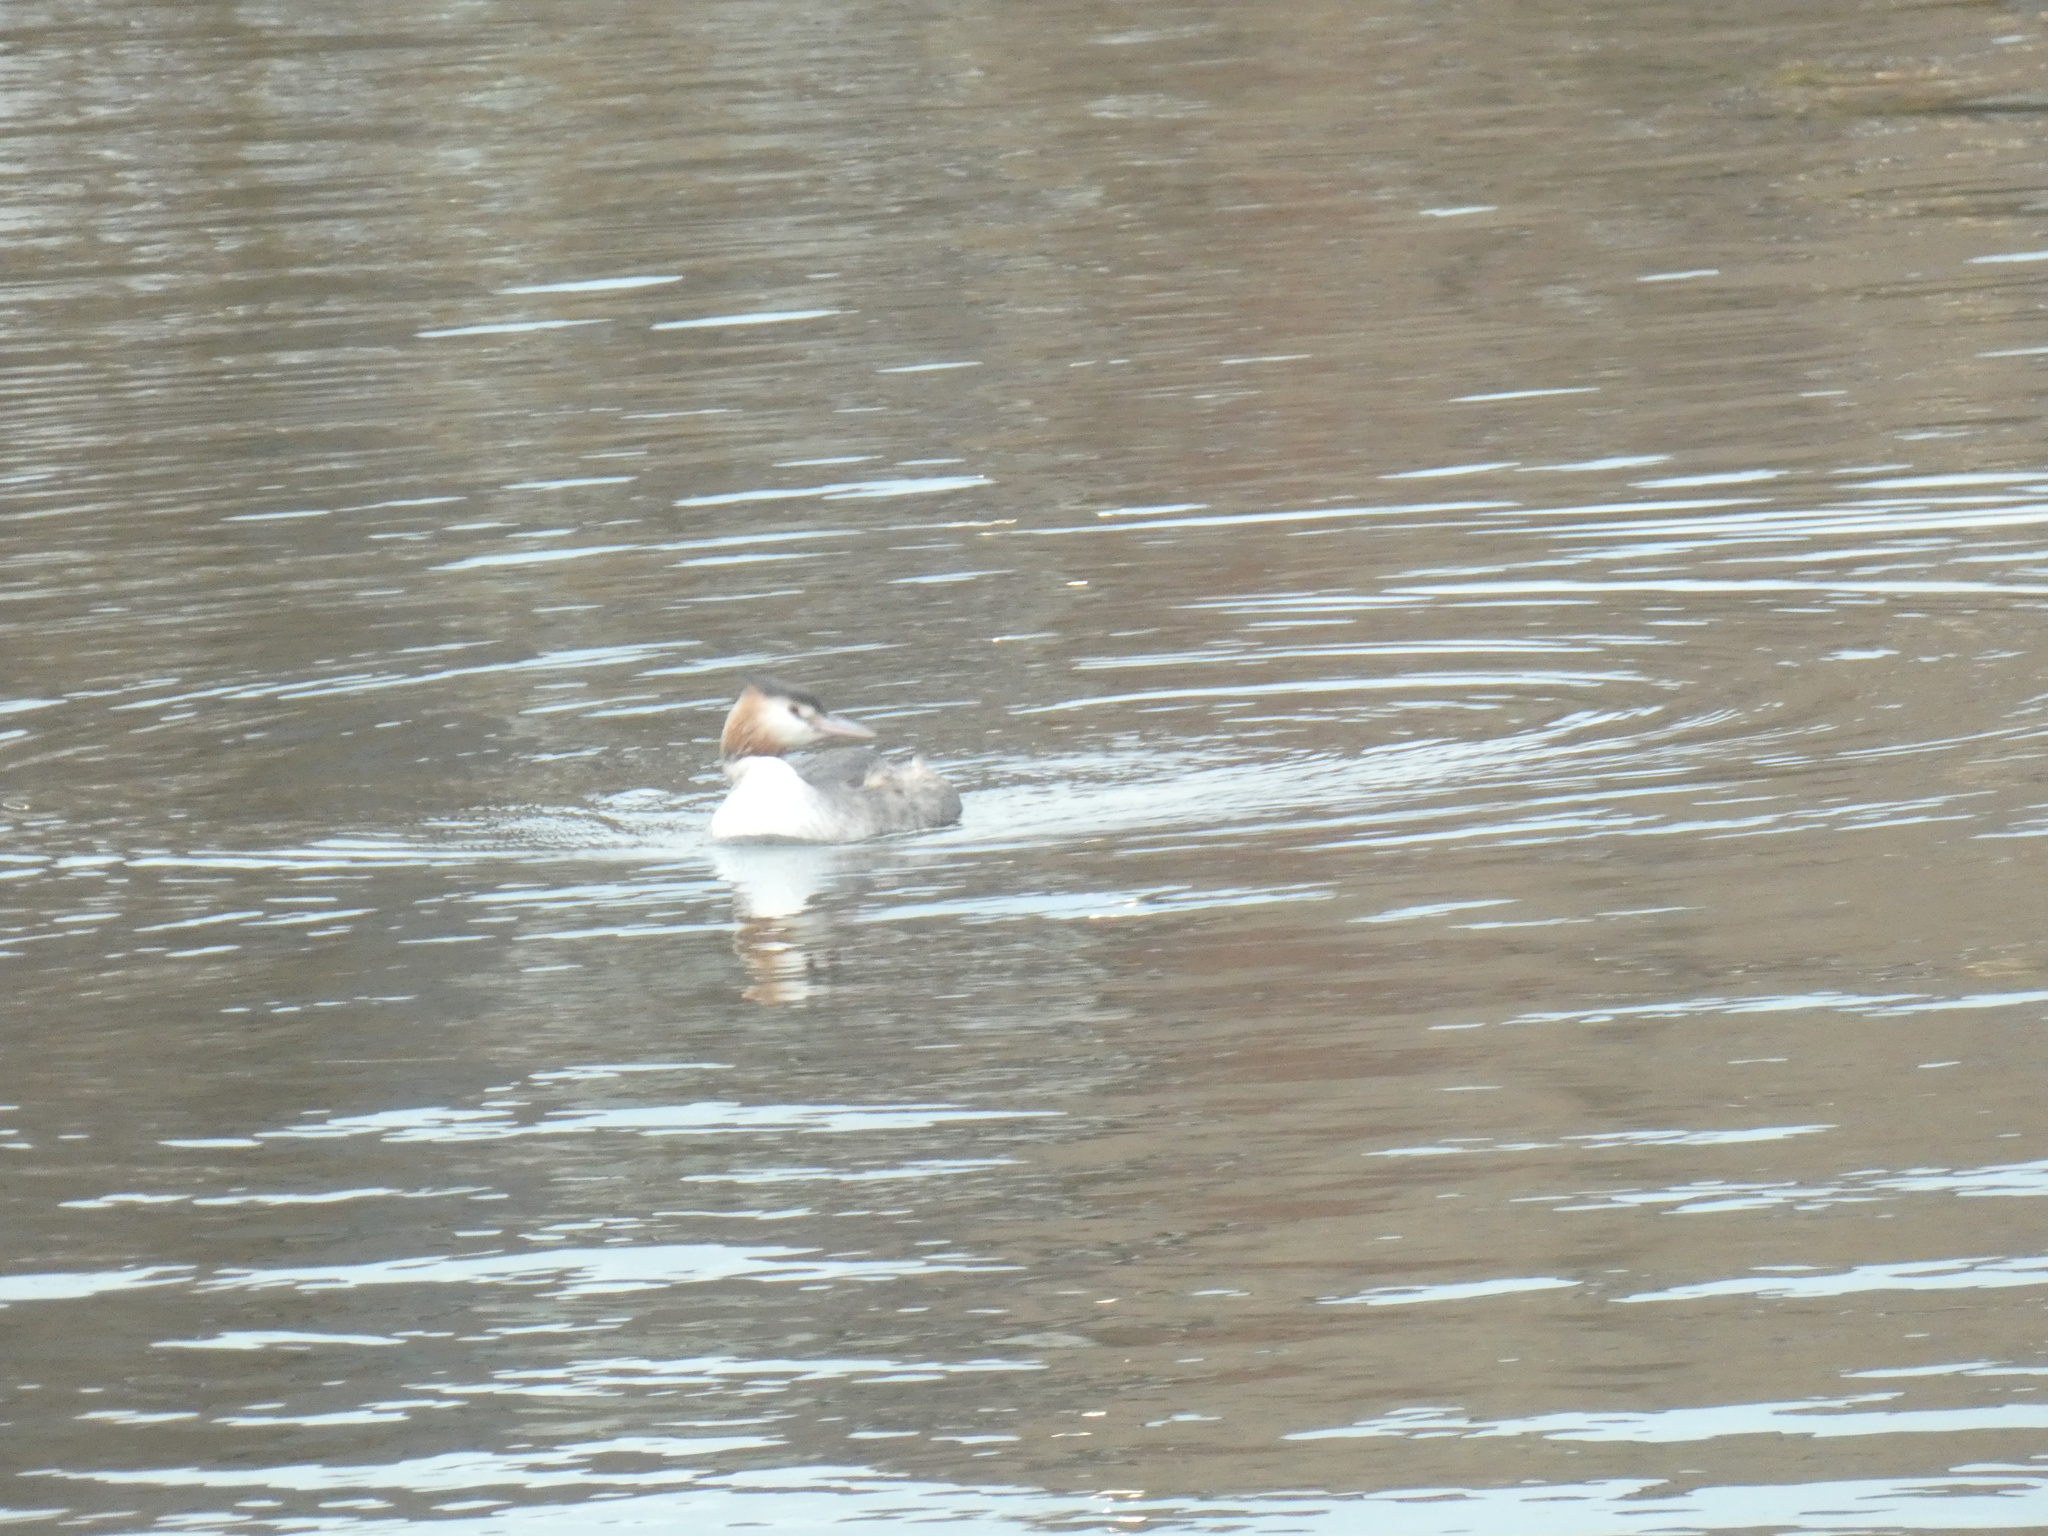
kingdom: Animalia
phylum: Chordata
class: Aves
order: Podicipediformes
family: Podicipedidae
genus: Podiceps
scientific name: Podiceps cristatus
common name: Great crested grebe
